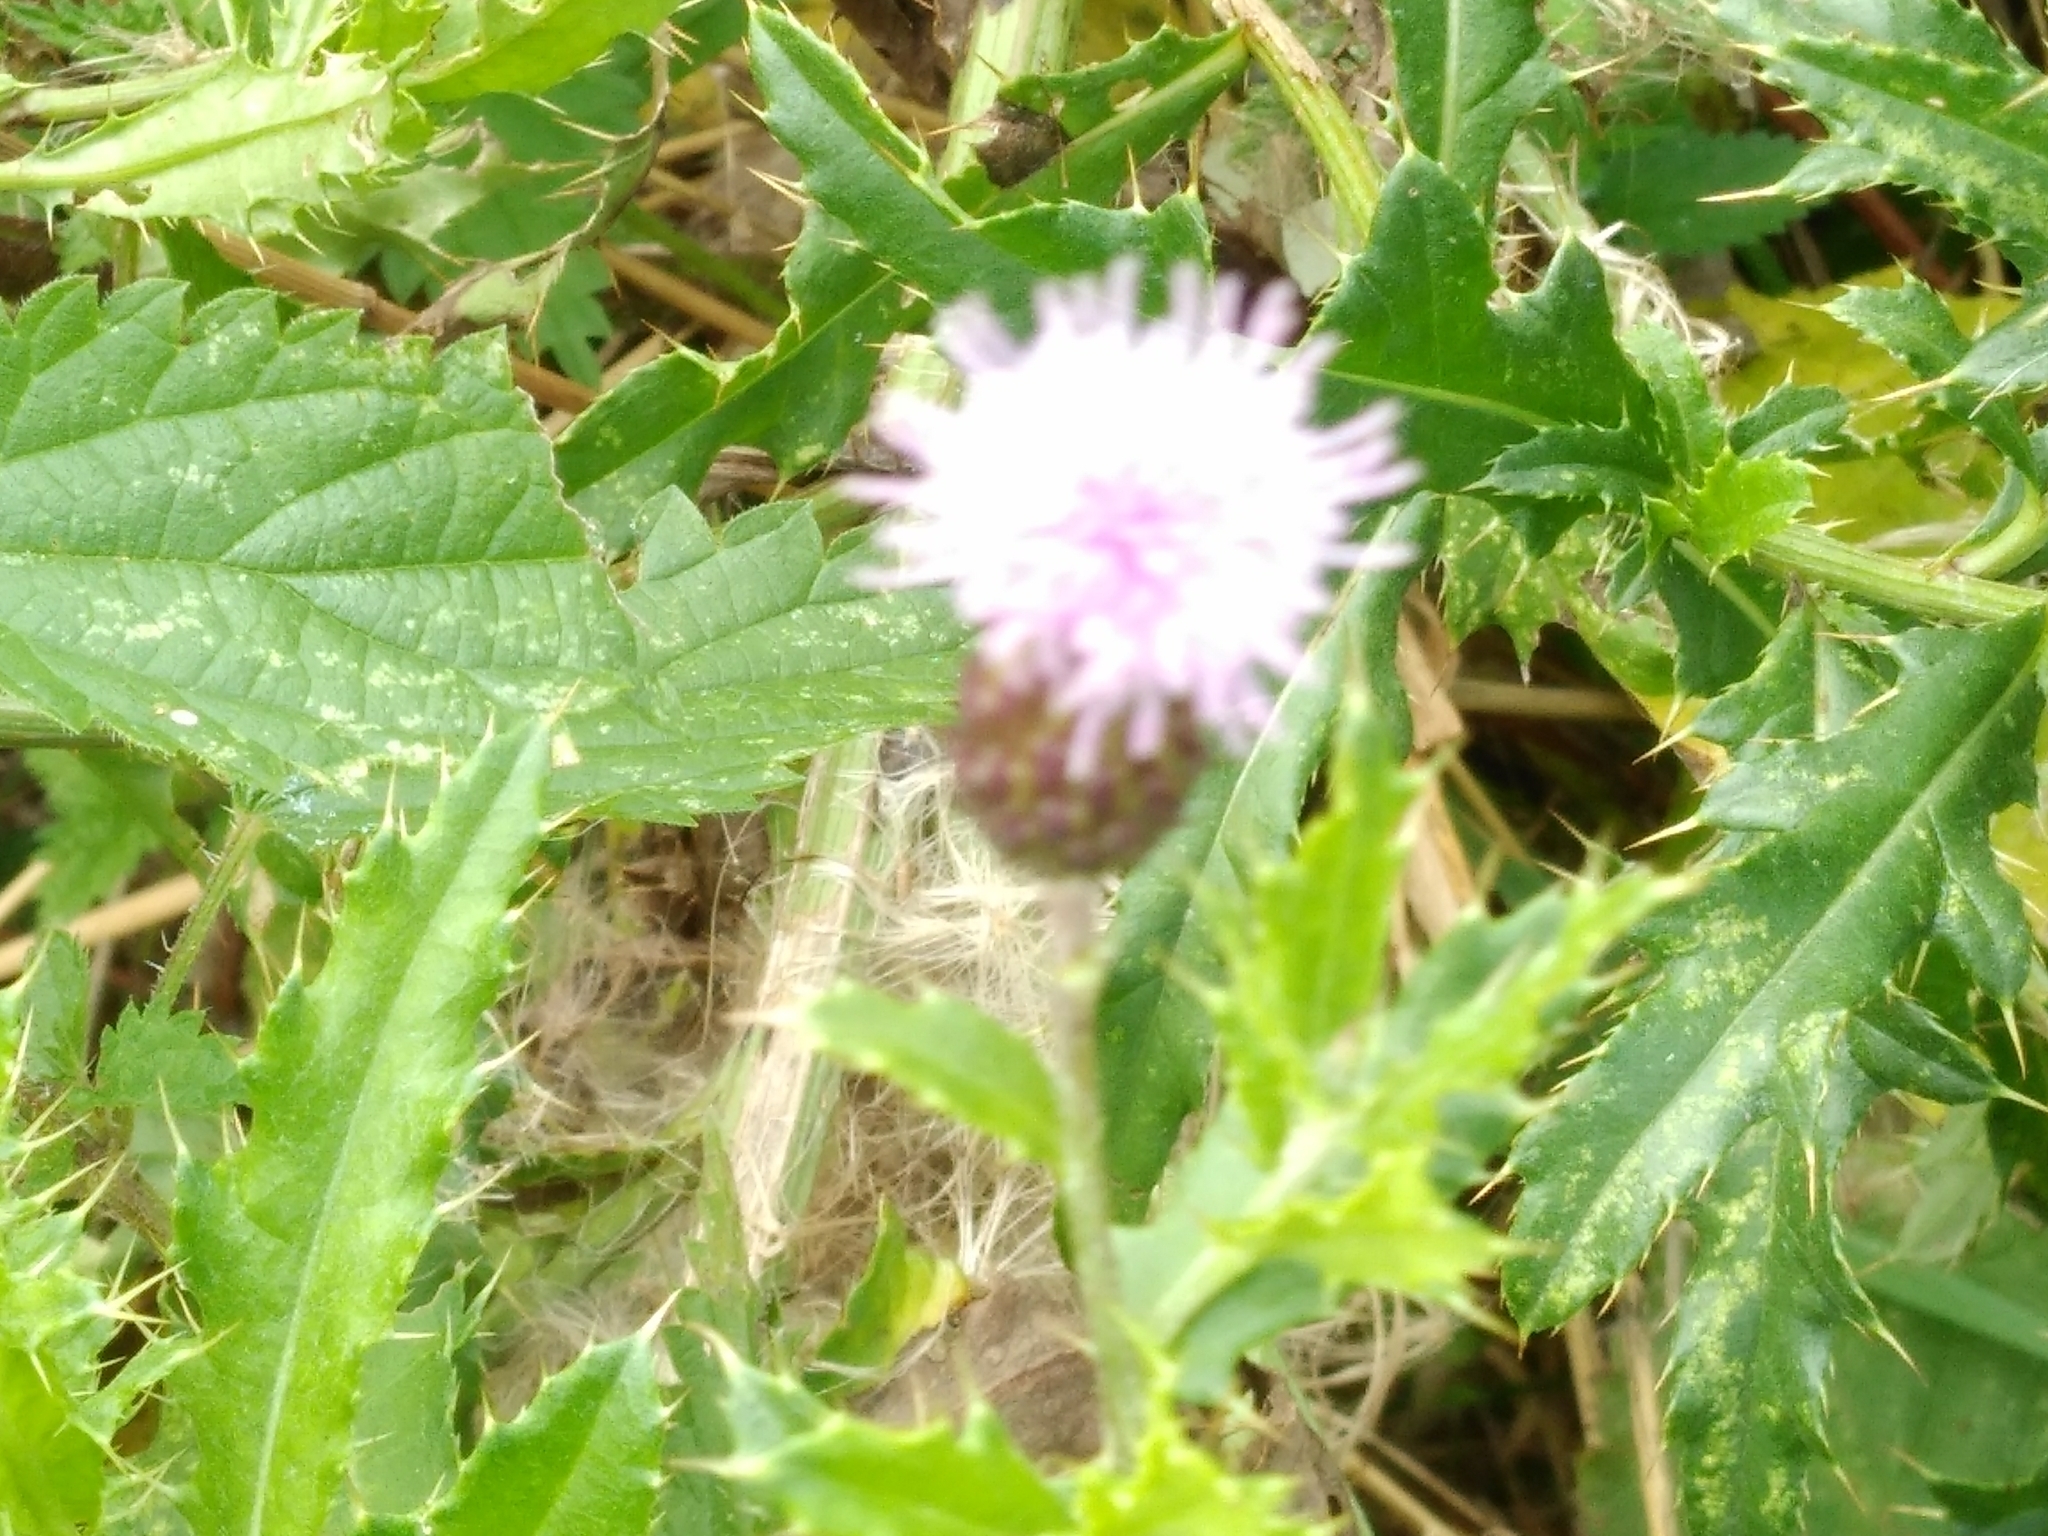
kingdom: Plantae
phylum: Tracheophyta
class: Magnoliopsida
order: Asterales
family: Asteraceae
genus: Cirsium
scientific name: Cirsium arvense
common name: Creeping thistle
